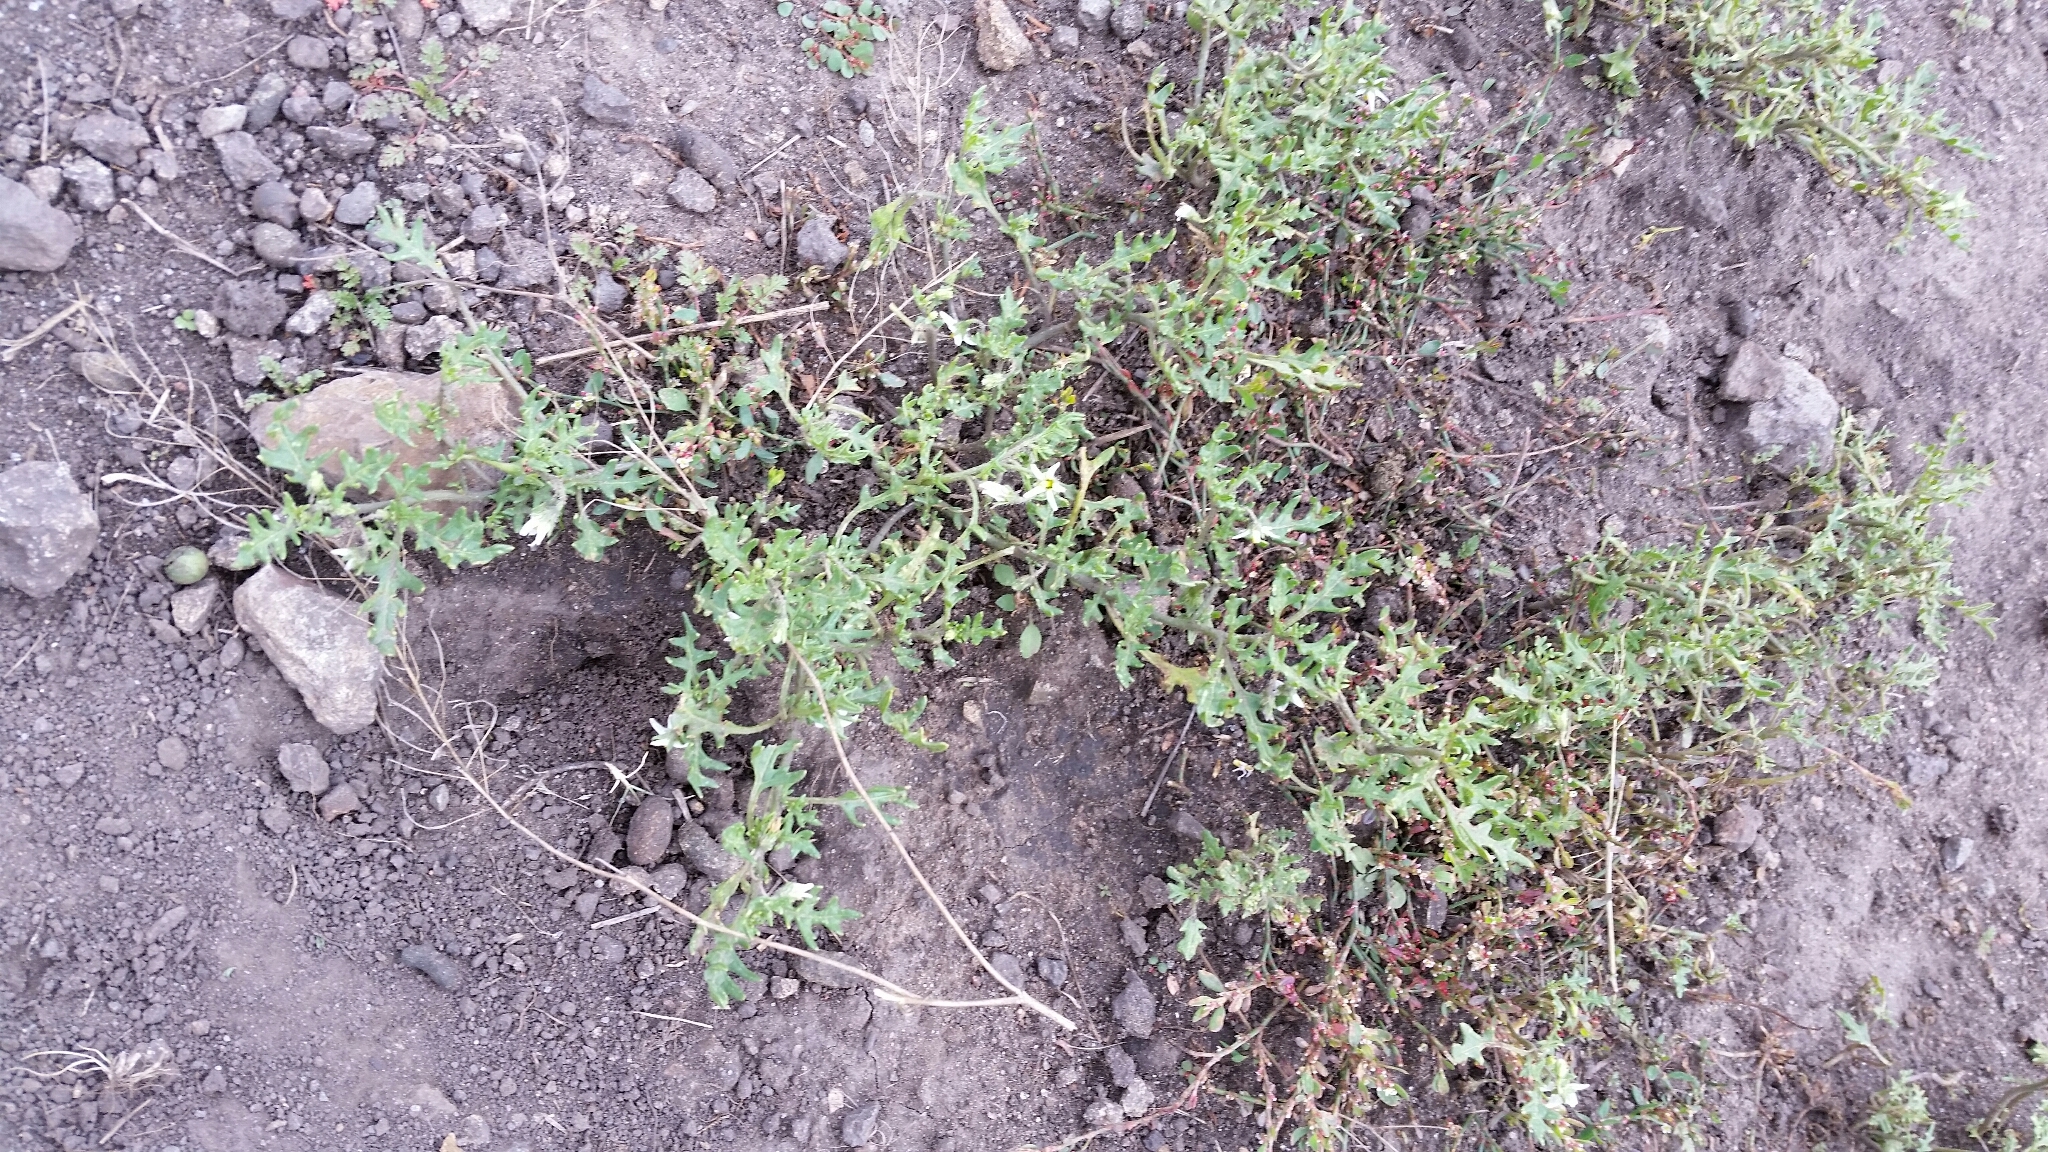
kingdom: Plantae
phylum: Tracheophyta
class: Magnoliopsida
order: Solanales
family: Solanaceae
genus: Solanum
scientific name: Solanum triflorum
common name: Small nightshade
